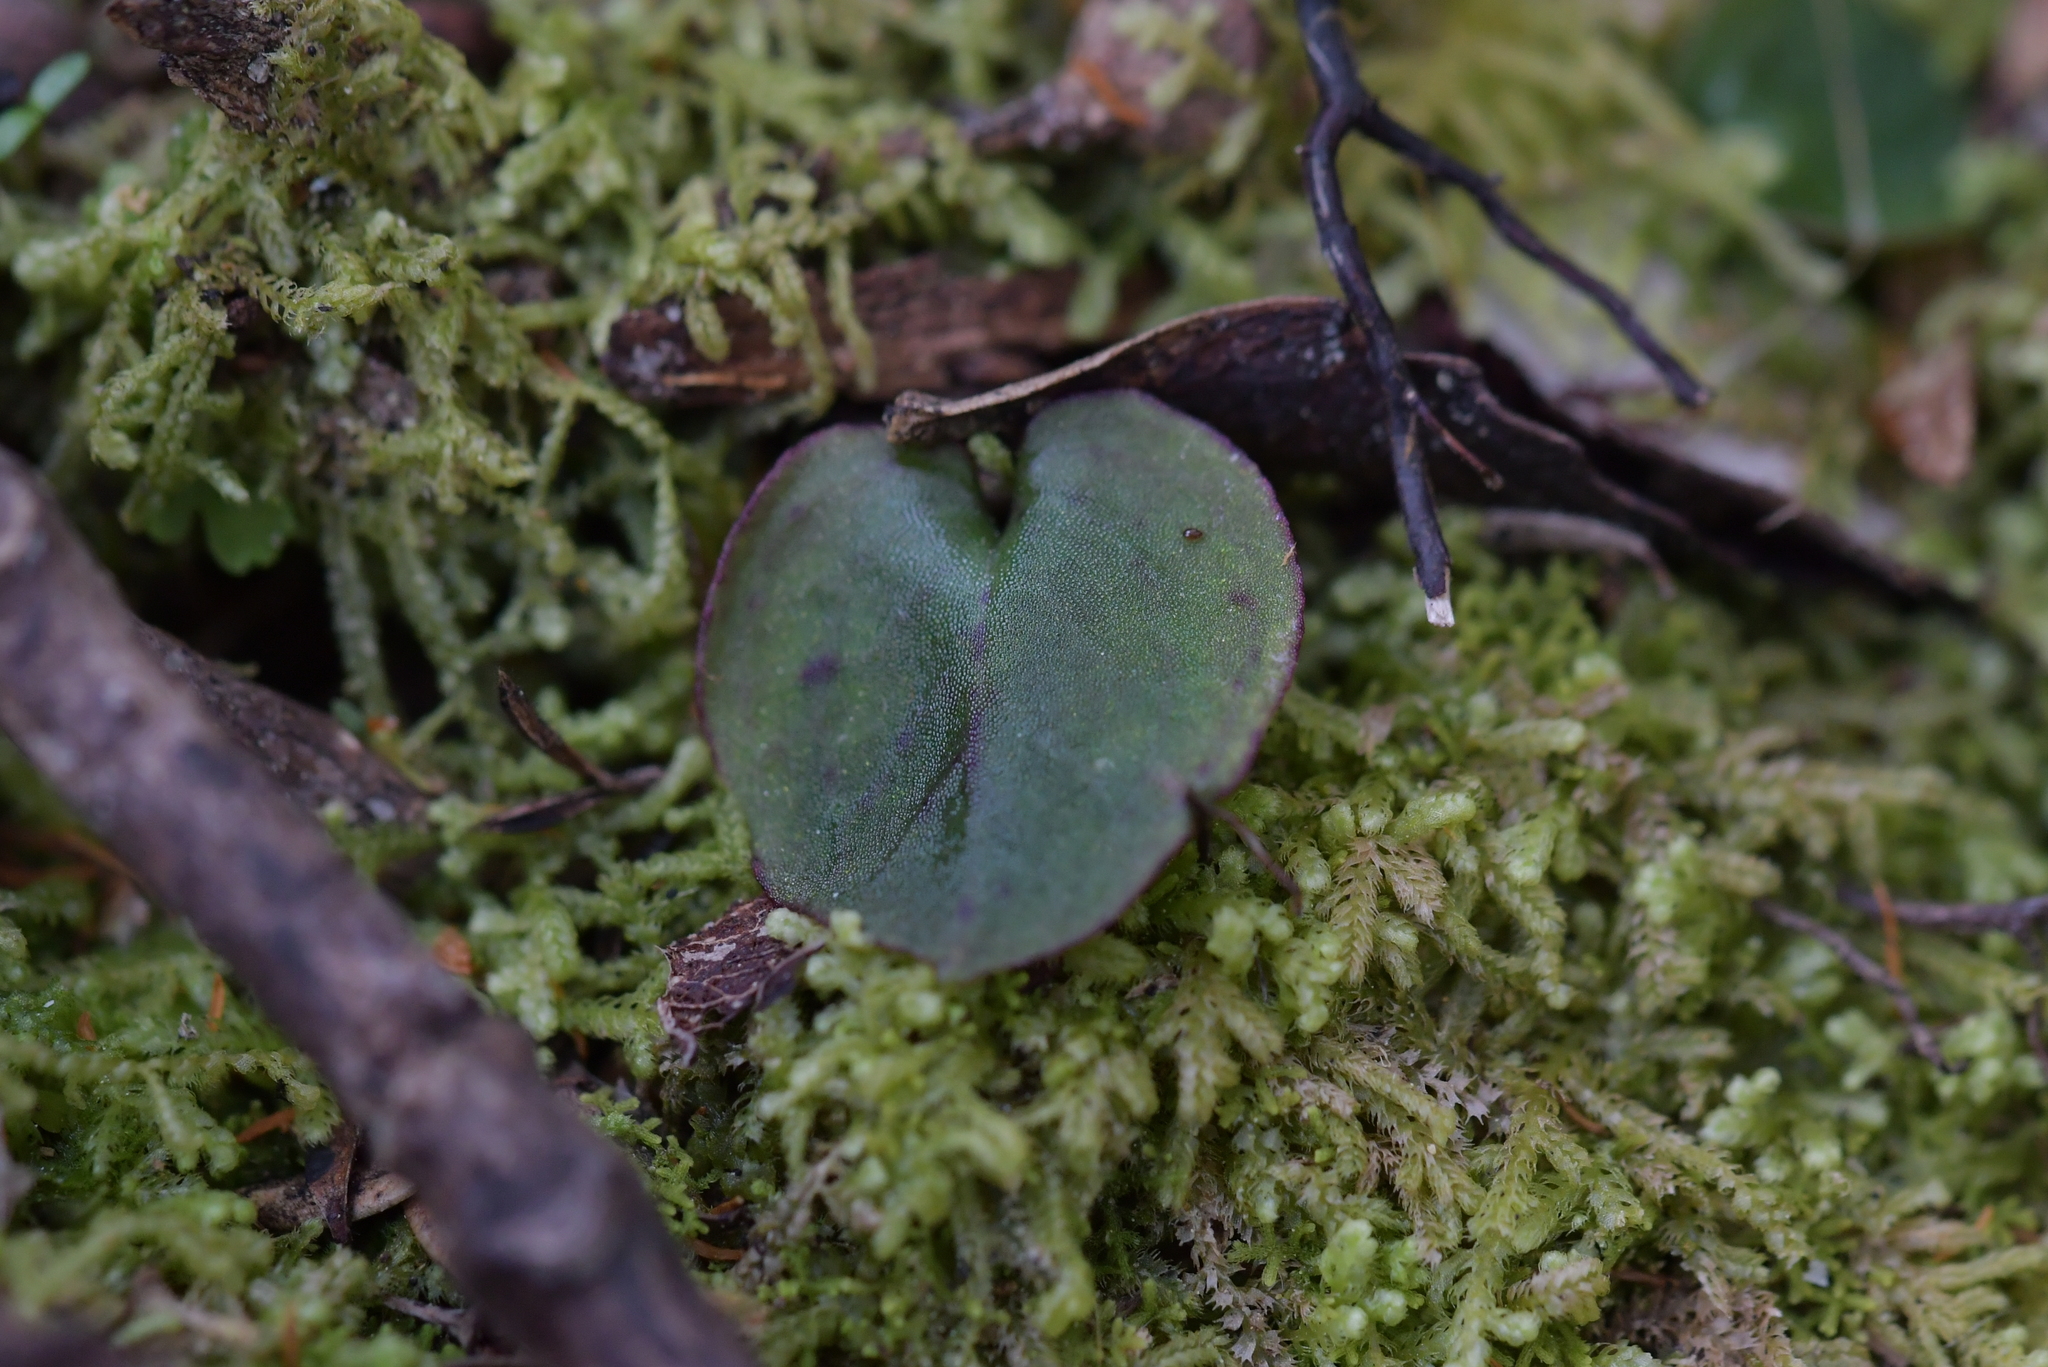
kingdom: Plantae
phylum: Tracheophyta
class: Liliopsida
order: Asparagales
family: Orchidaceae
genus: Corybas
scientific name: Corybas oblongus
